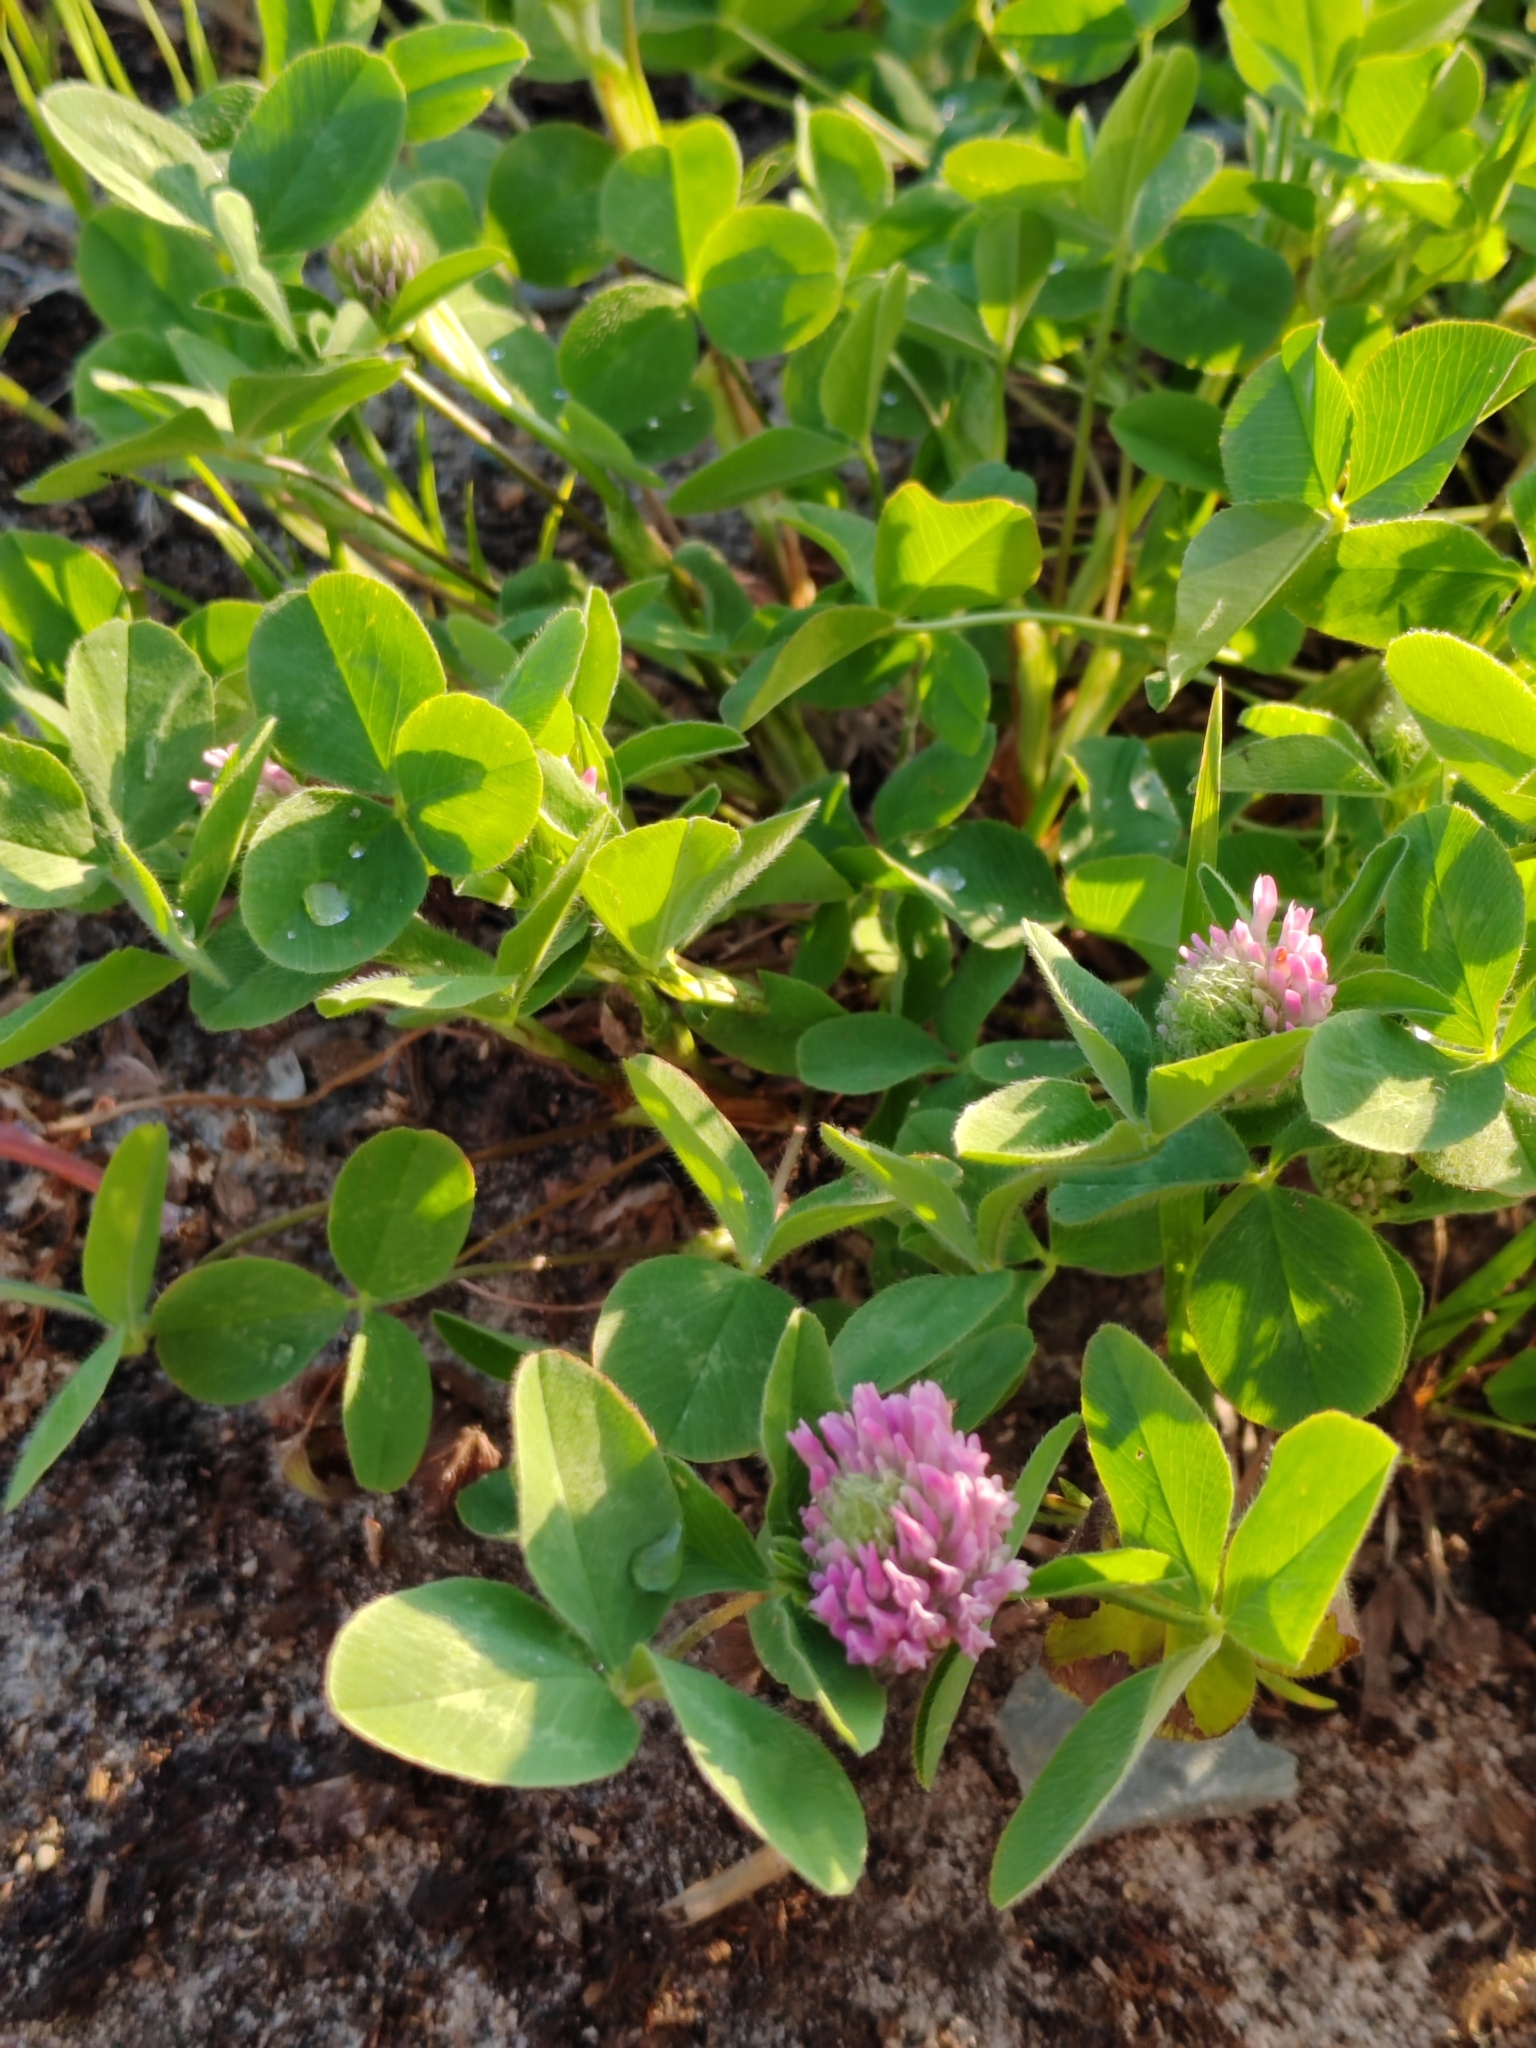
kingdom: Plantae
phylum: Tracheophyta
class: Magnoliopsida
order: Fabales
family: Fabaceae
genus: Trifolium
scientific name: Trifolium pratense
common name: Red clover
